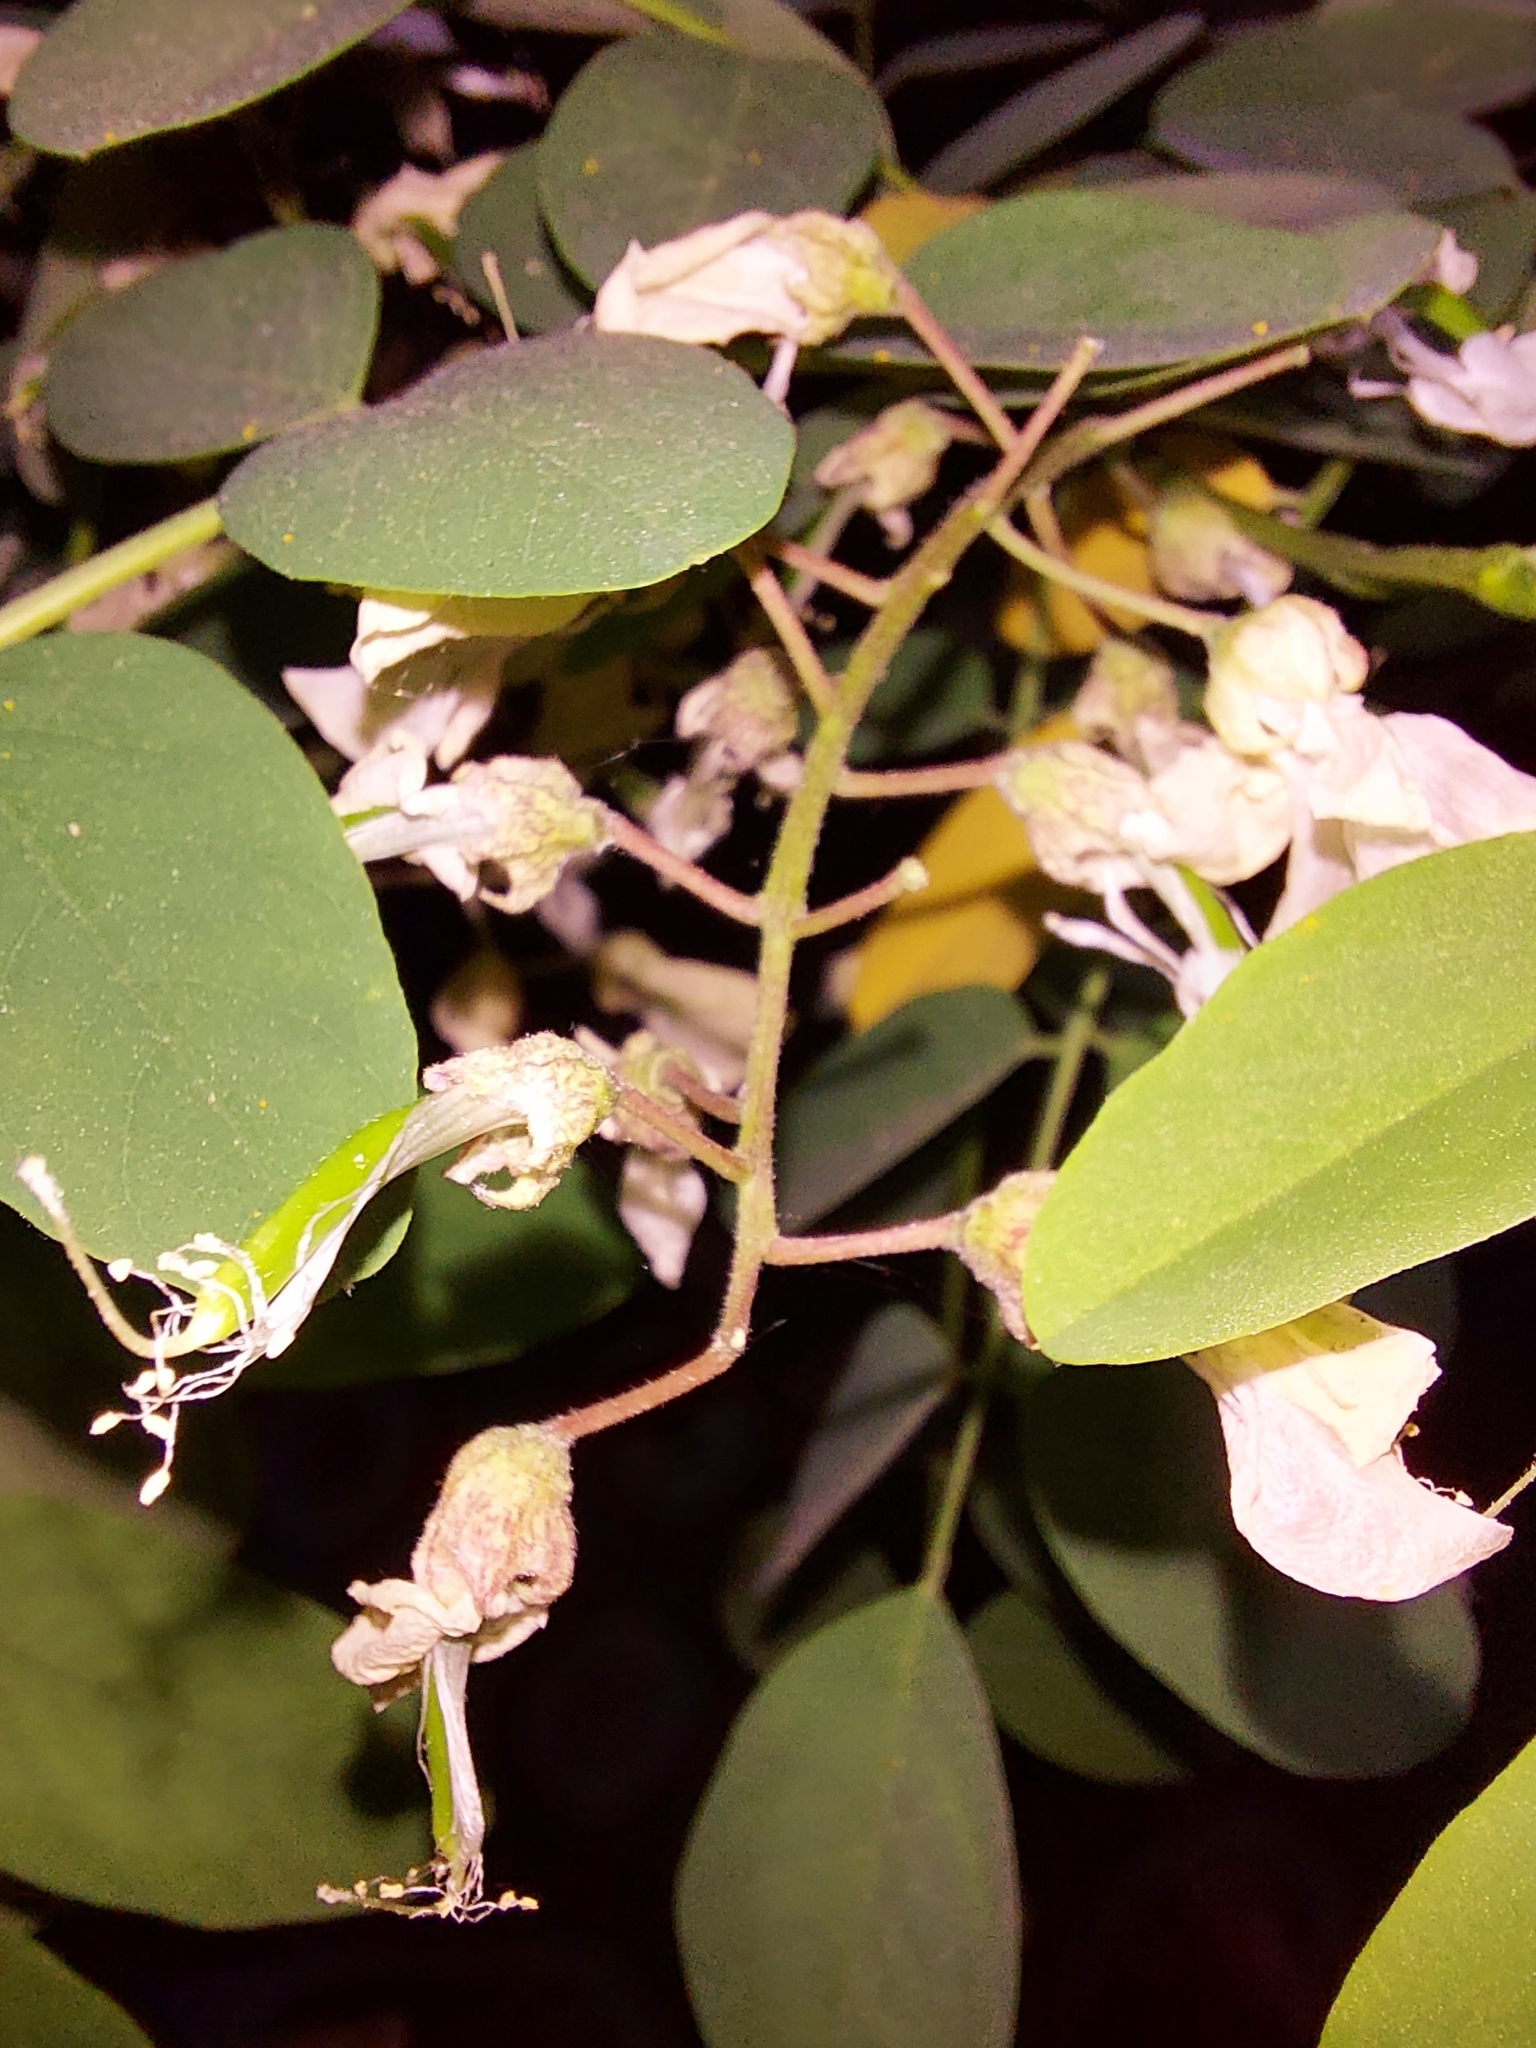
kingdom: Plantae
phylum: Tracheophyta
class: Magnoliopsida
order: Fabales
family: Fabaceae
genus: Robinia
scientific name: Robinia pseudoacacia
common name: Black locust
